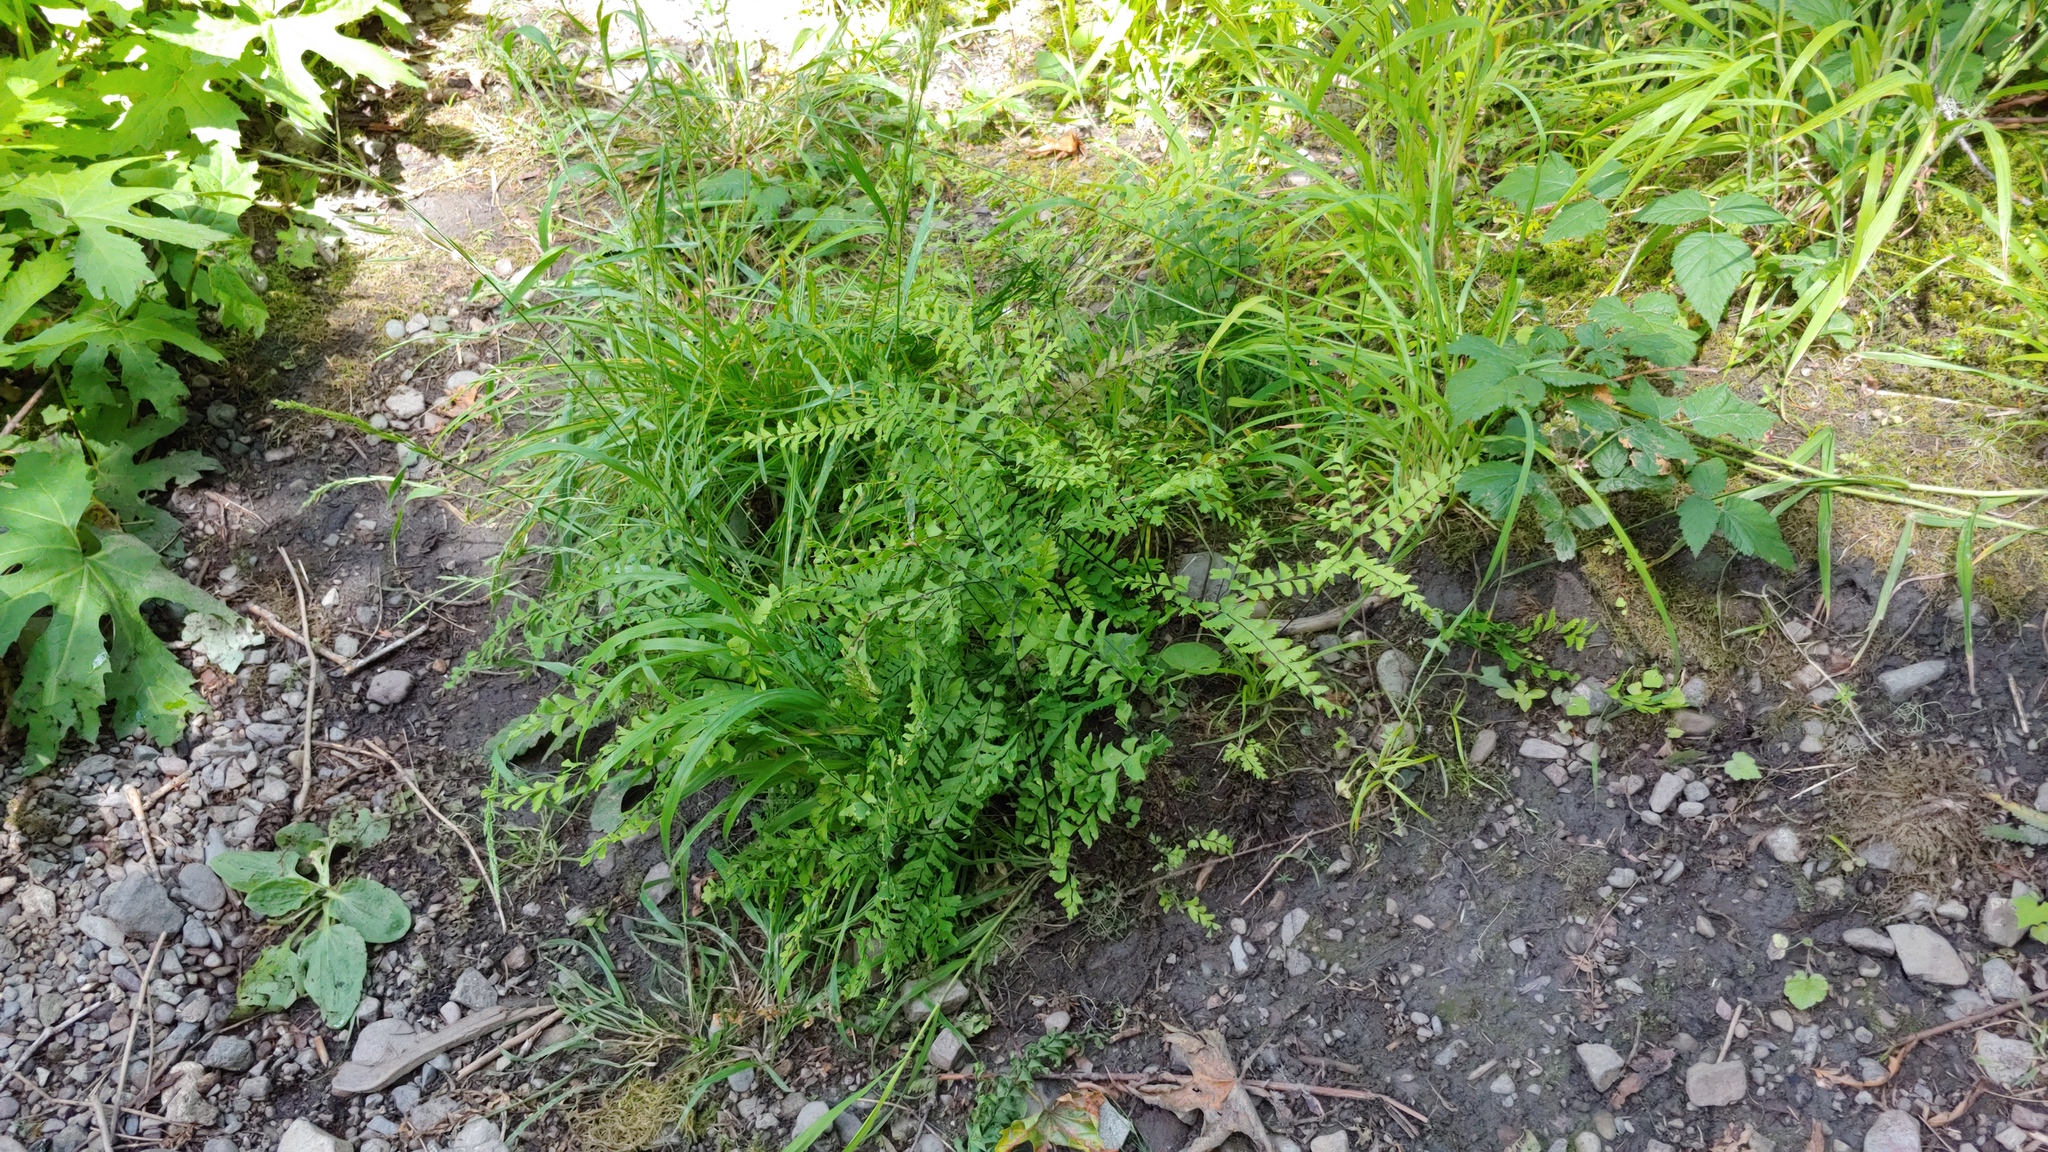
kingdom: Plantae
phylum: Tracheophyta
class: Polypodiopsida
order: Polypodiales
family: Pteridaceae
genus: Adiantum
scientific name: Adiantum aleuticum
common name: Aleutian maidenhair fern
